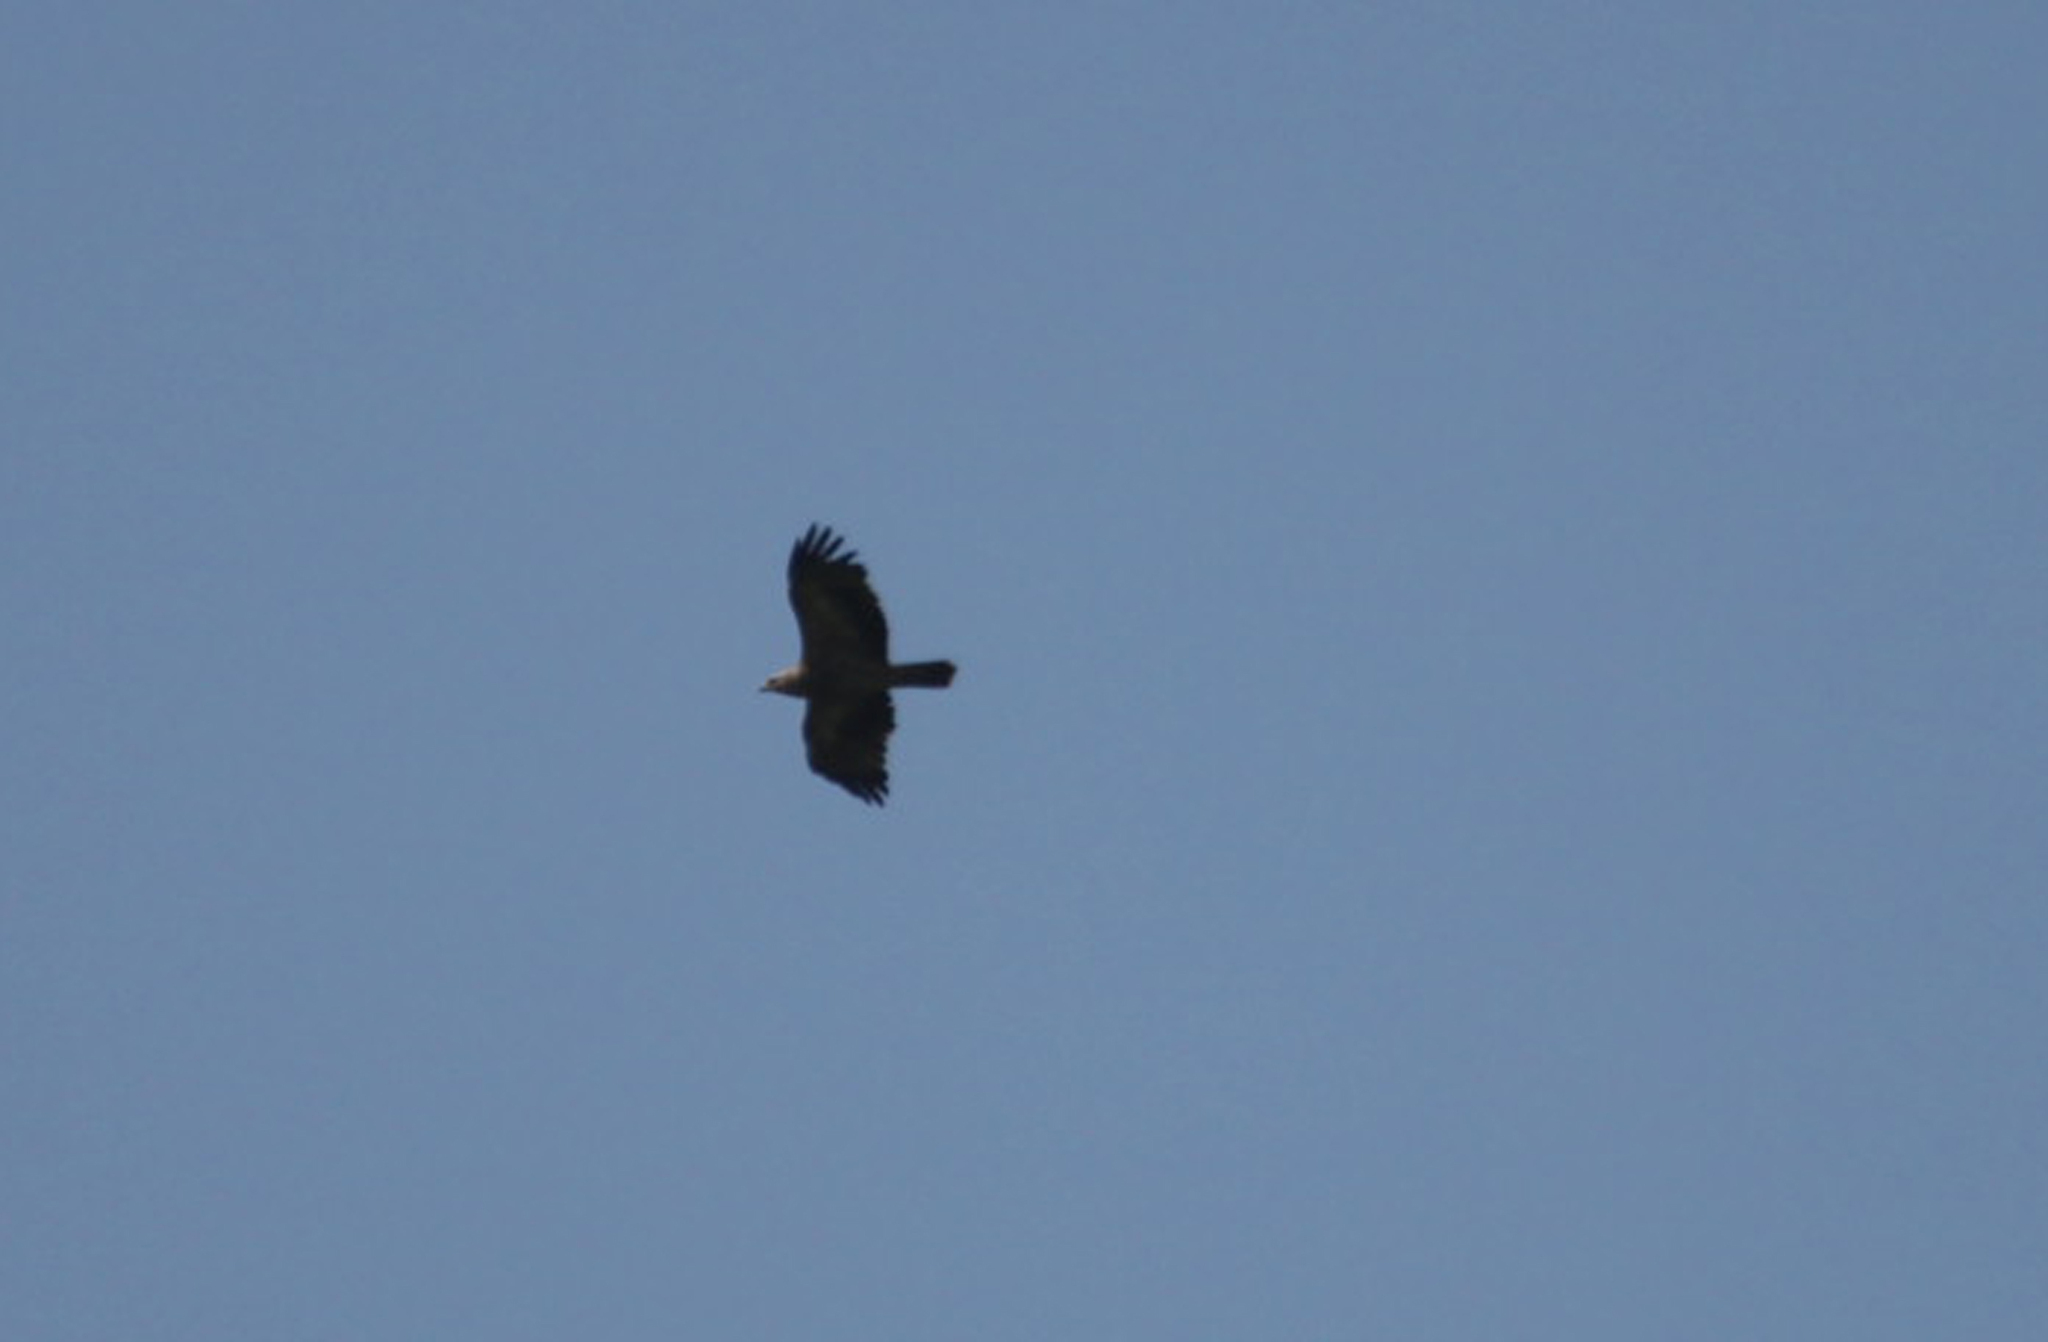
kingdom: Animalia
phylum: Chordata
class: Aves
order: Accipitriformes
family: Accipitridae
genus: Aquila
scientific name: Aquila heliaca
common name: Eastern imperial eagle
